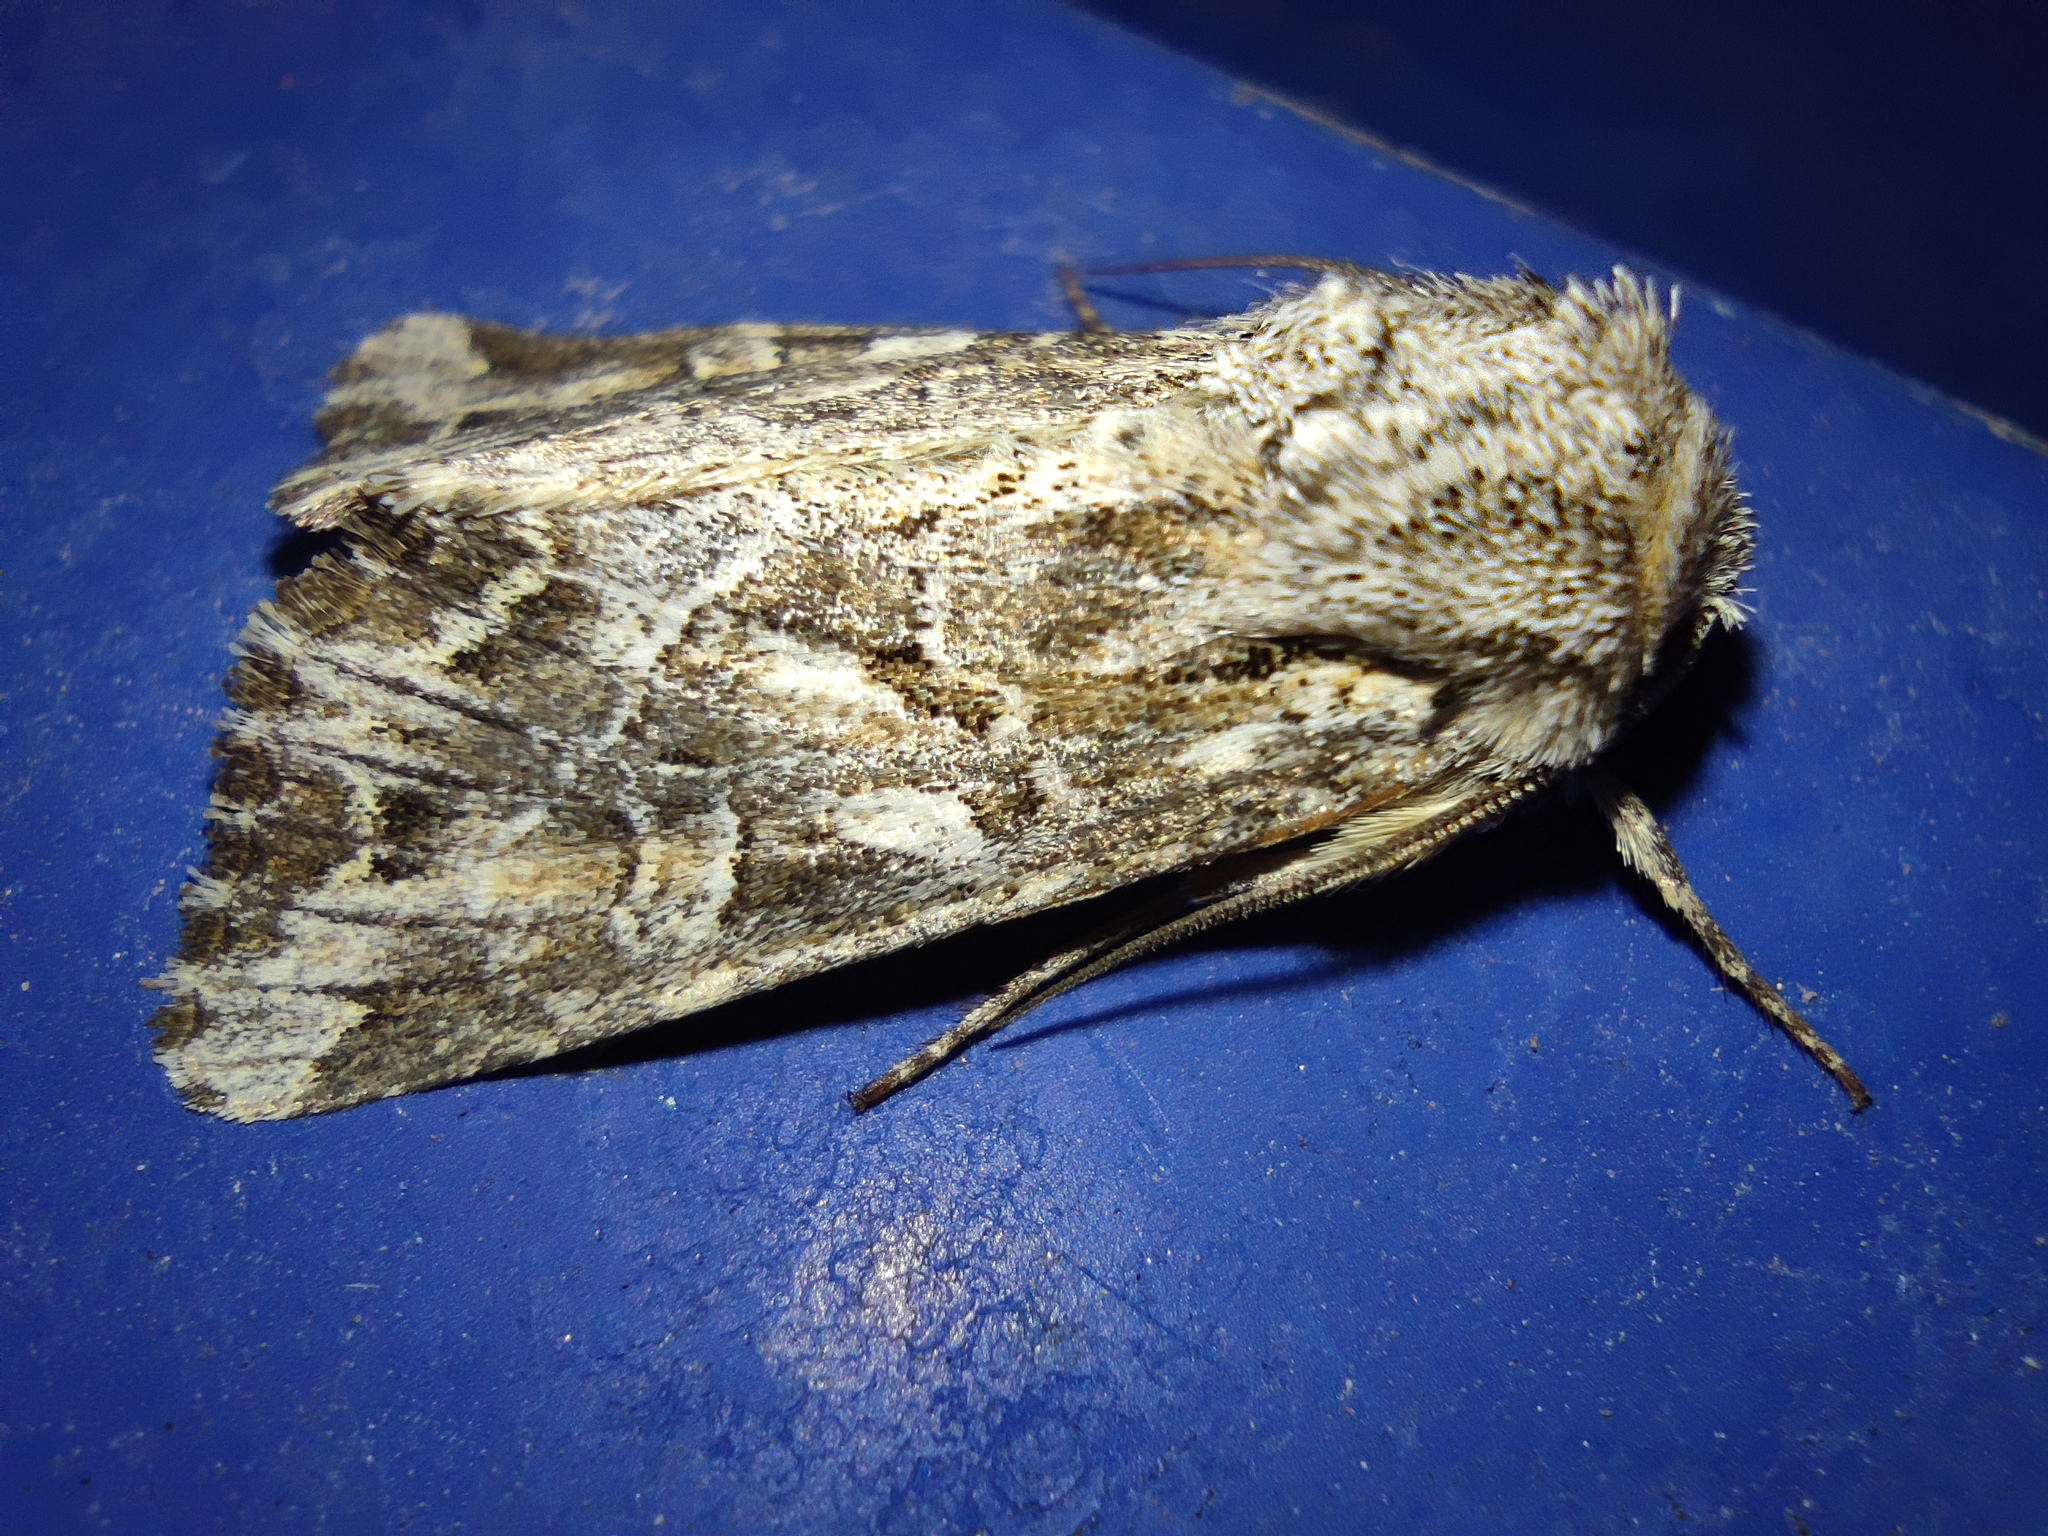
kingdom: Animalia
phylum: Arthropoda
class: Insecta
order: Lepidoptera
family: Noctuidae
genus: Apamea
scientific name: Apamea leucodon
